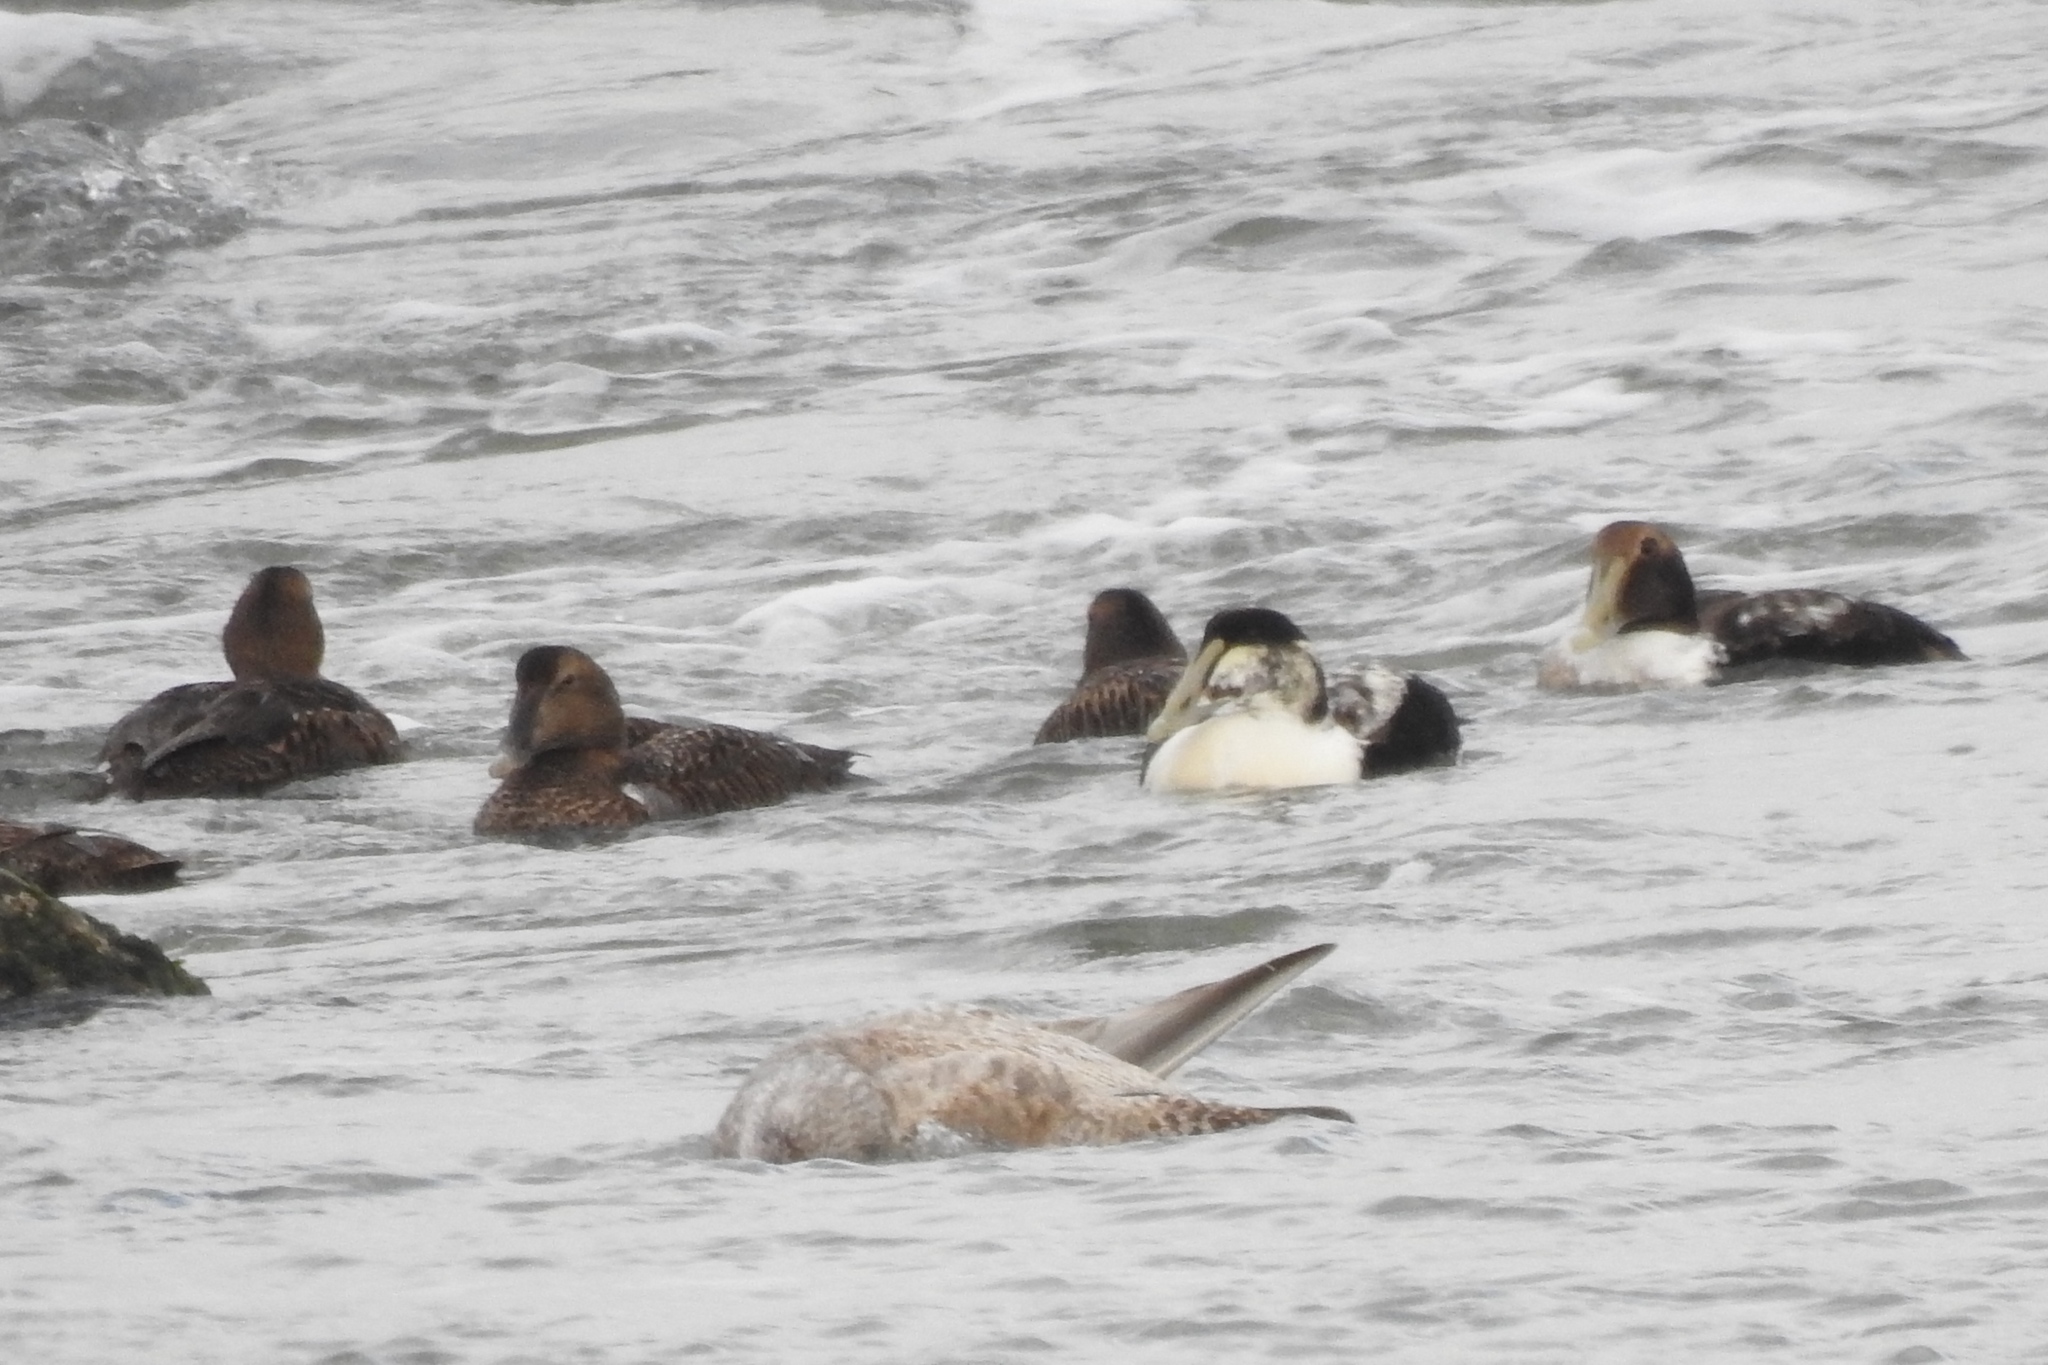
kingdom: Animalia
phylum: Chordata
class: Aves
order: Anseriformes
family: Anatidae
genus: Somateria
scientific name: Somateria mollissima
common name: Common eider
